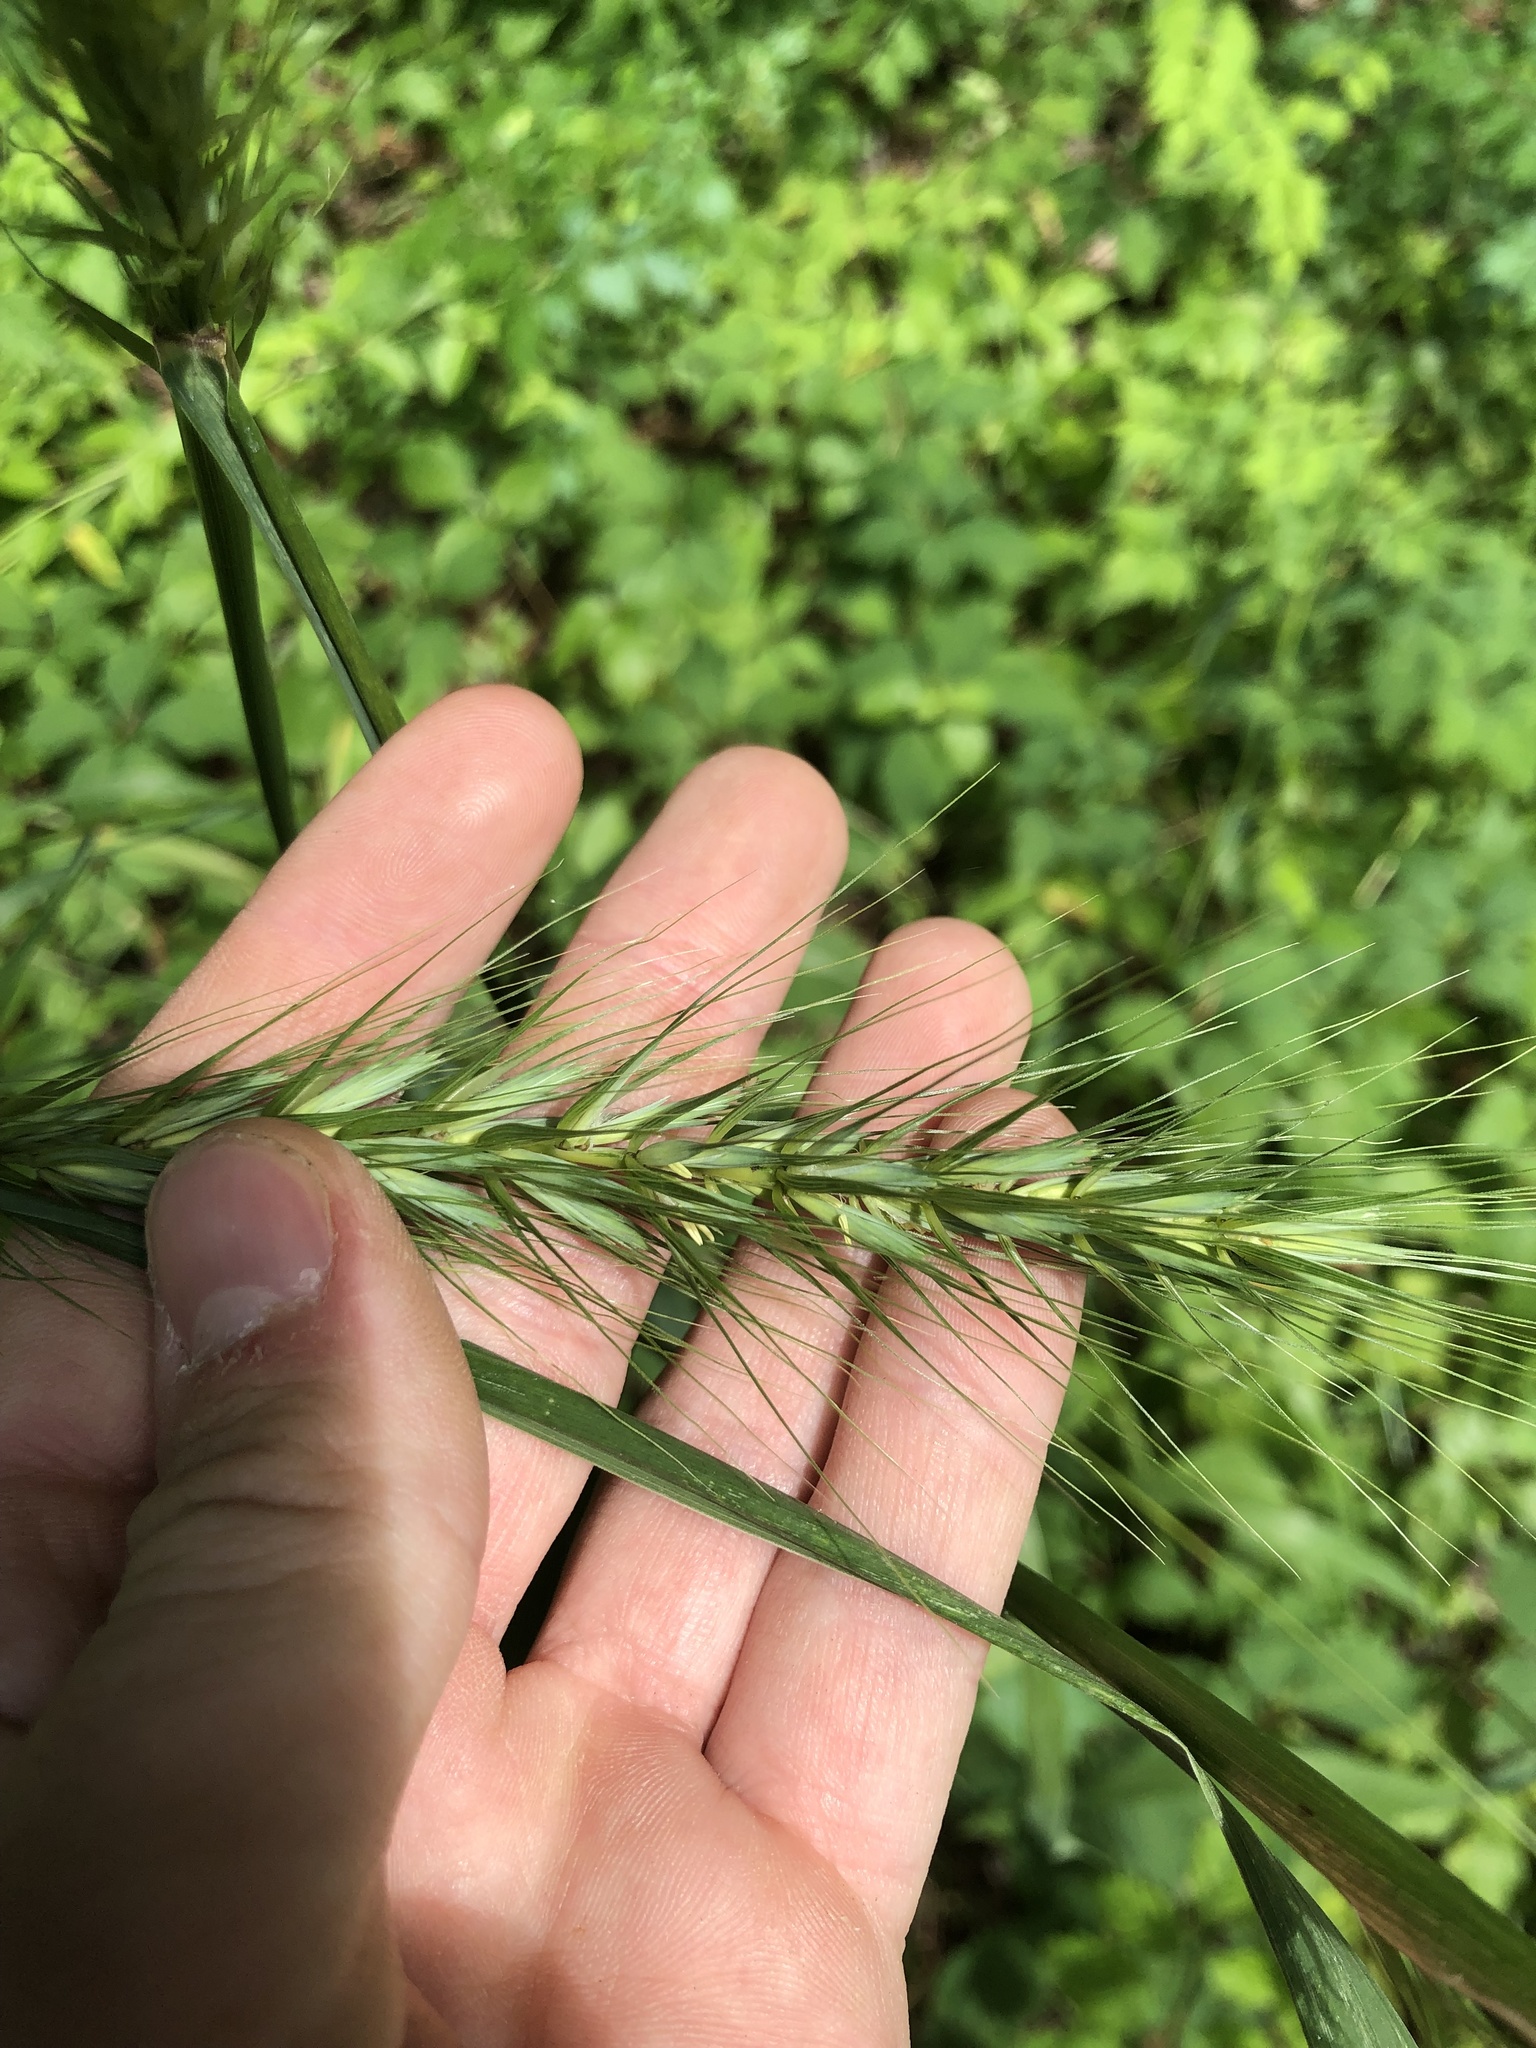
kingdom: Plantae
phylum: Tracheophyta
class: Liliopsida
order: Poales
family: Poaceae
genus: Elymus
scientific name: Elymus virginicus
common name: Common eastern wildrye
